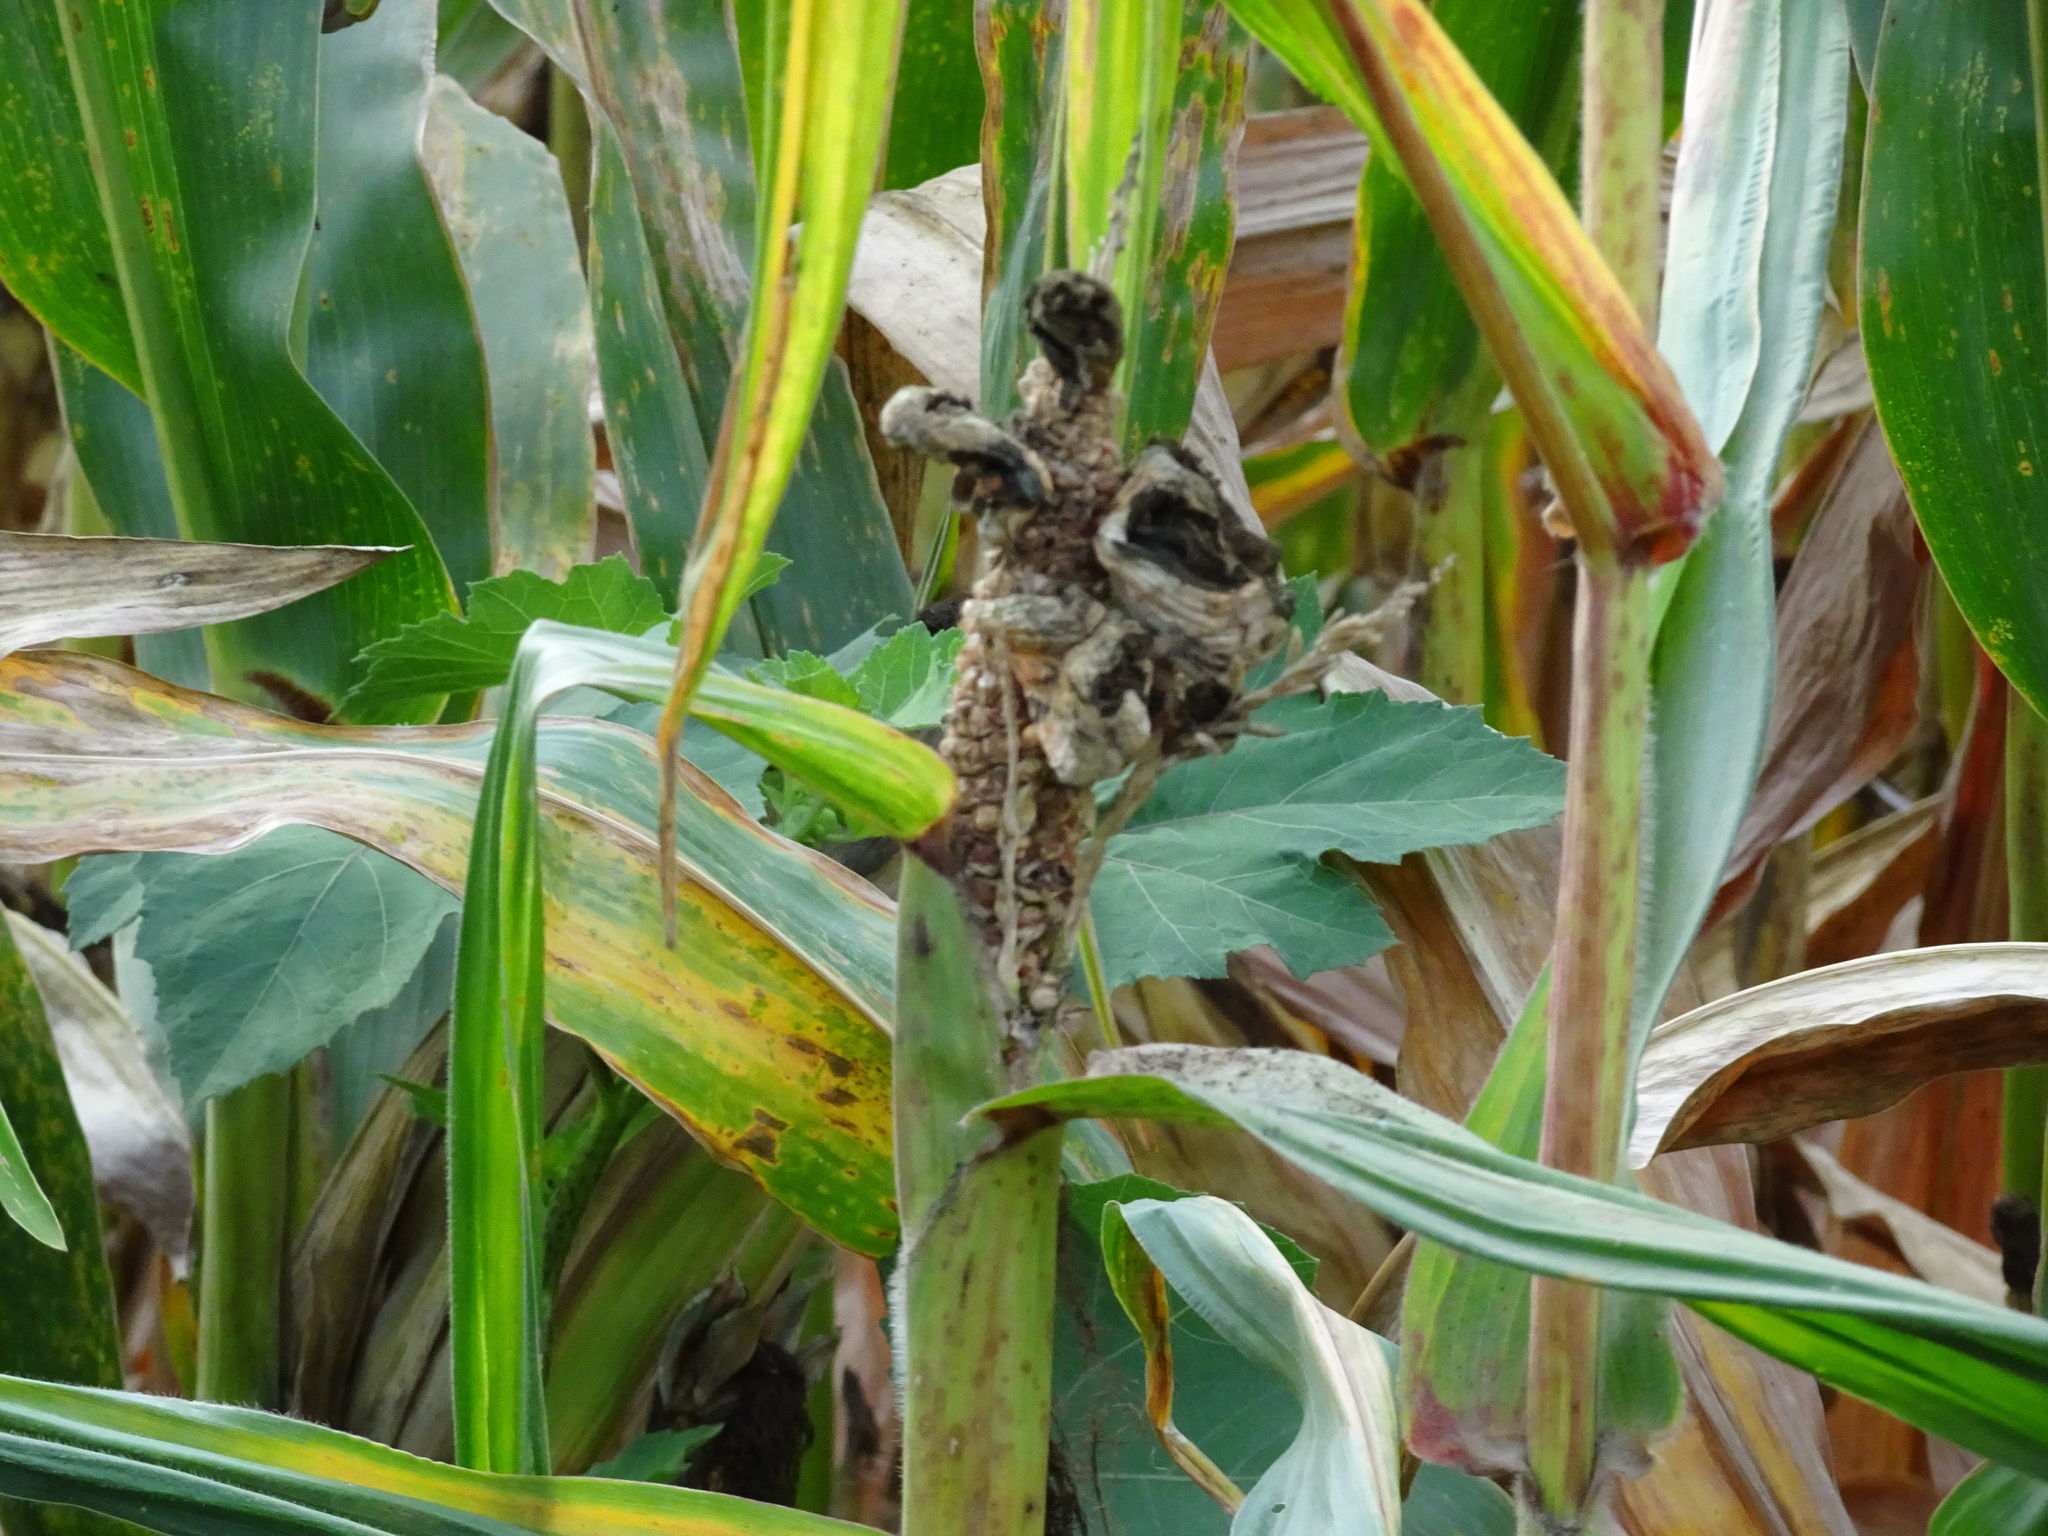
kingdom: Fungi
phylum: Basidiomycota
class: Ustilaginomycetes
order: Ustilaginales
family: Ustilaginaceae
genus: Mycosarcoma
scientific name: Mycosarcoma maydis
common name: Corn smut
